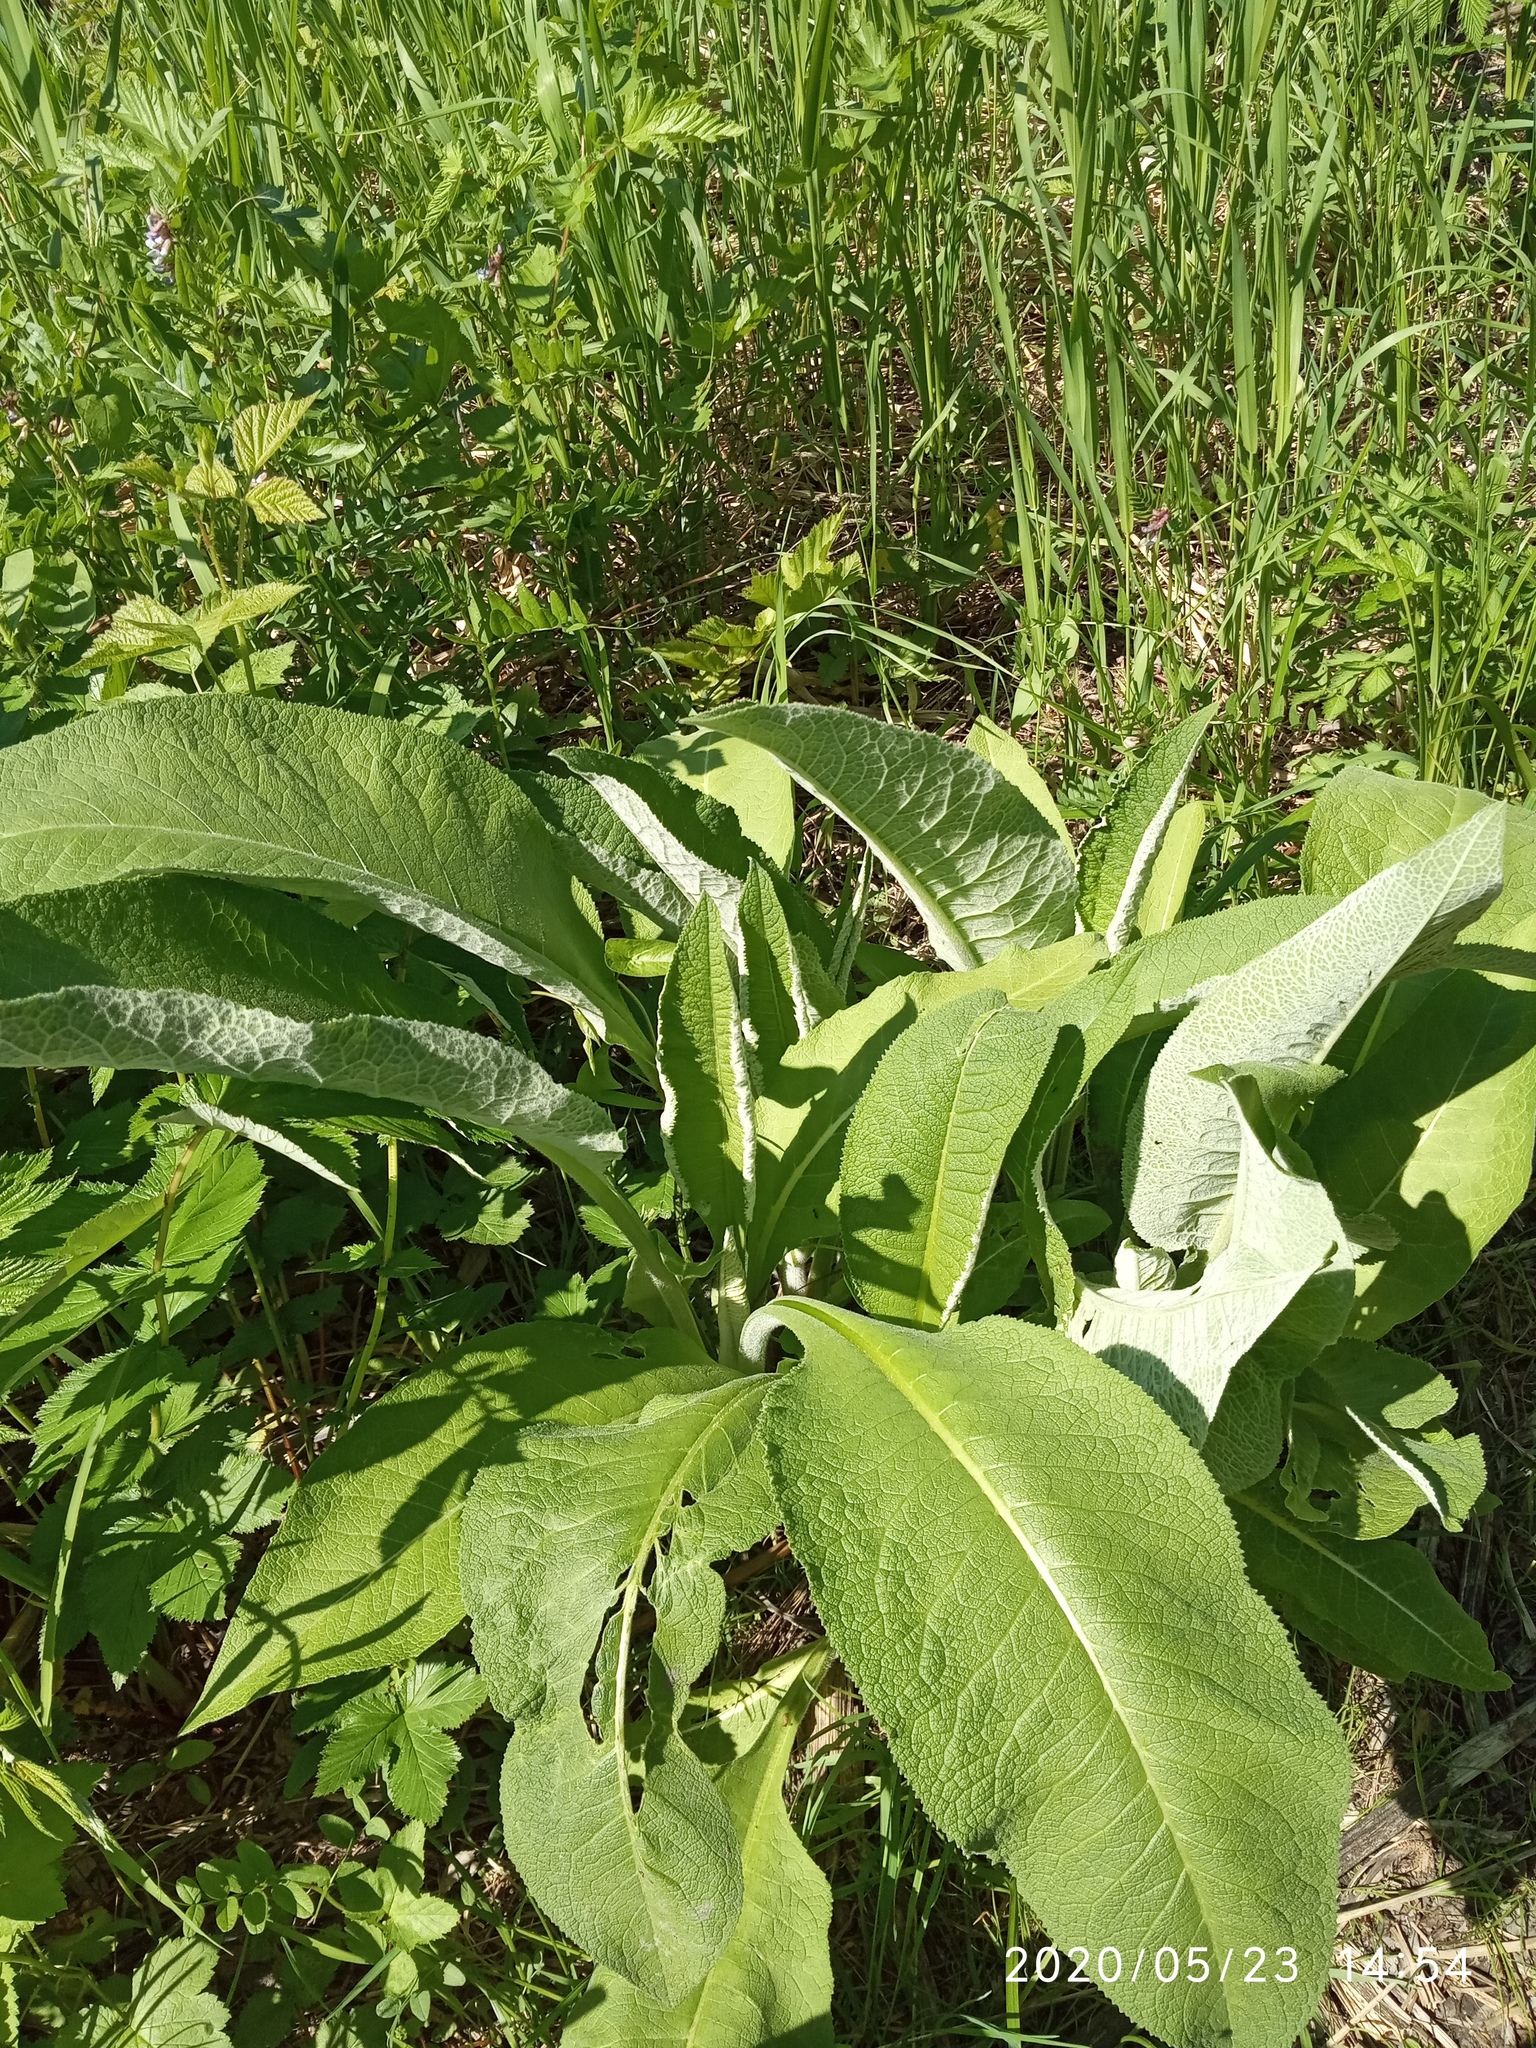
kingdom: Plantae
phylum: Tracheophyta
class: Magnoliopsida
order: Asterales
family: Asteraceae
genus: Inula
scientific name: Inula helenium
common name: Elecampane
